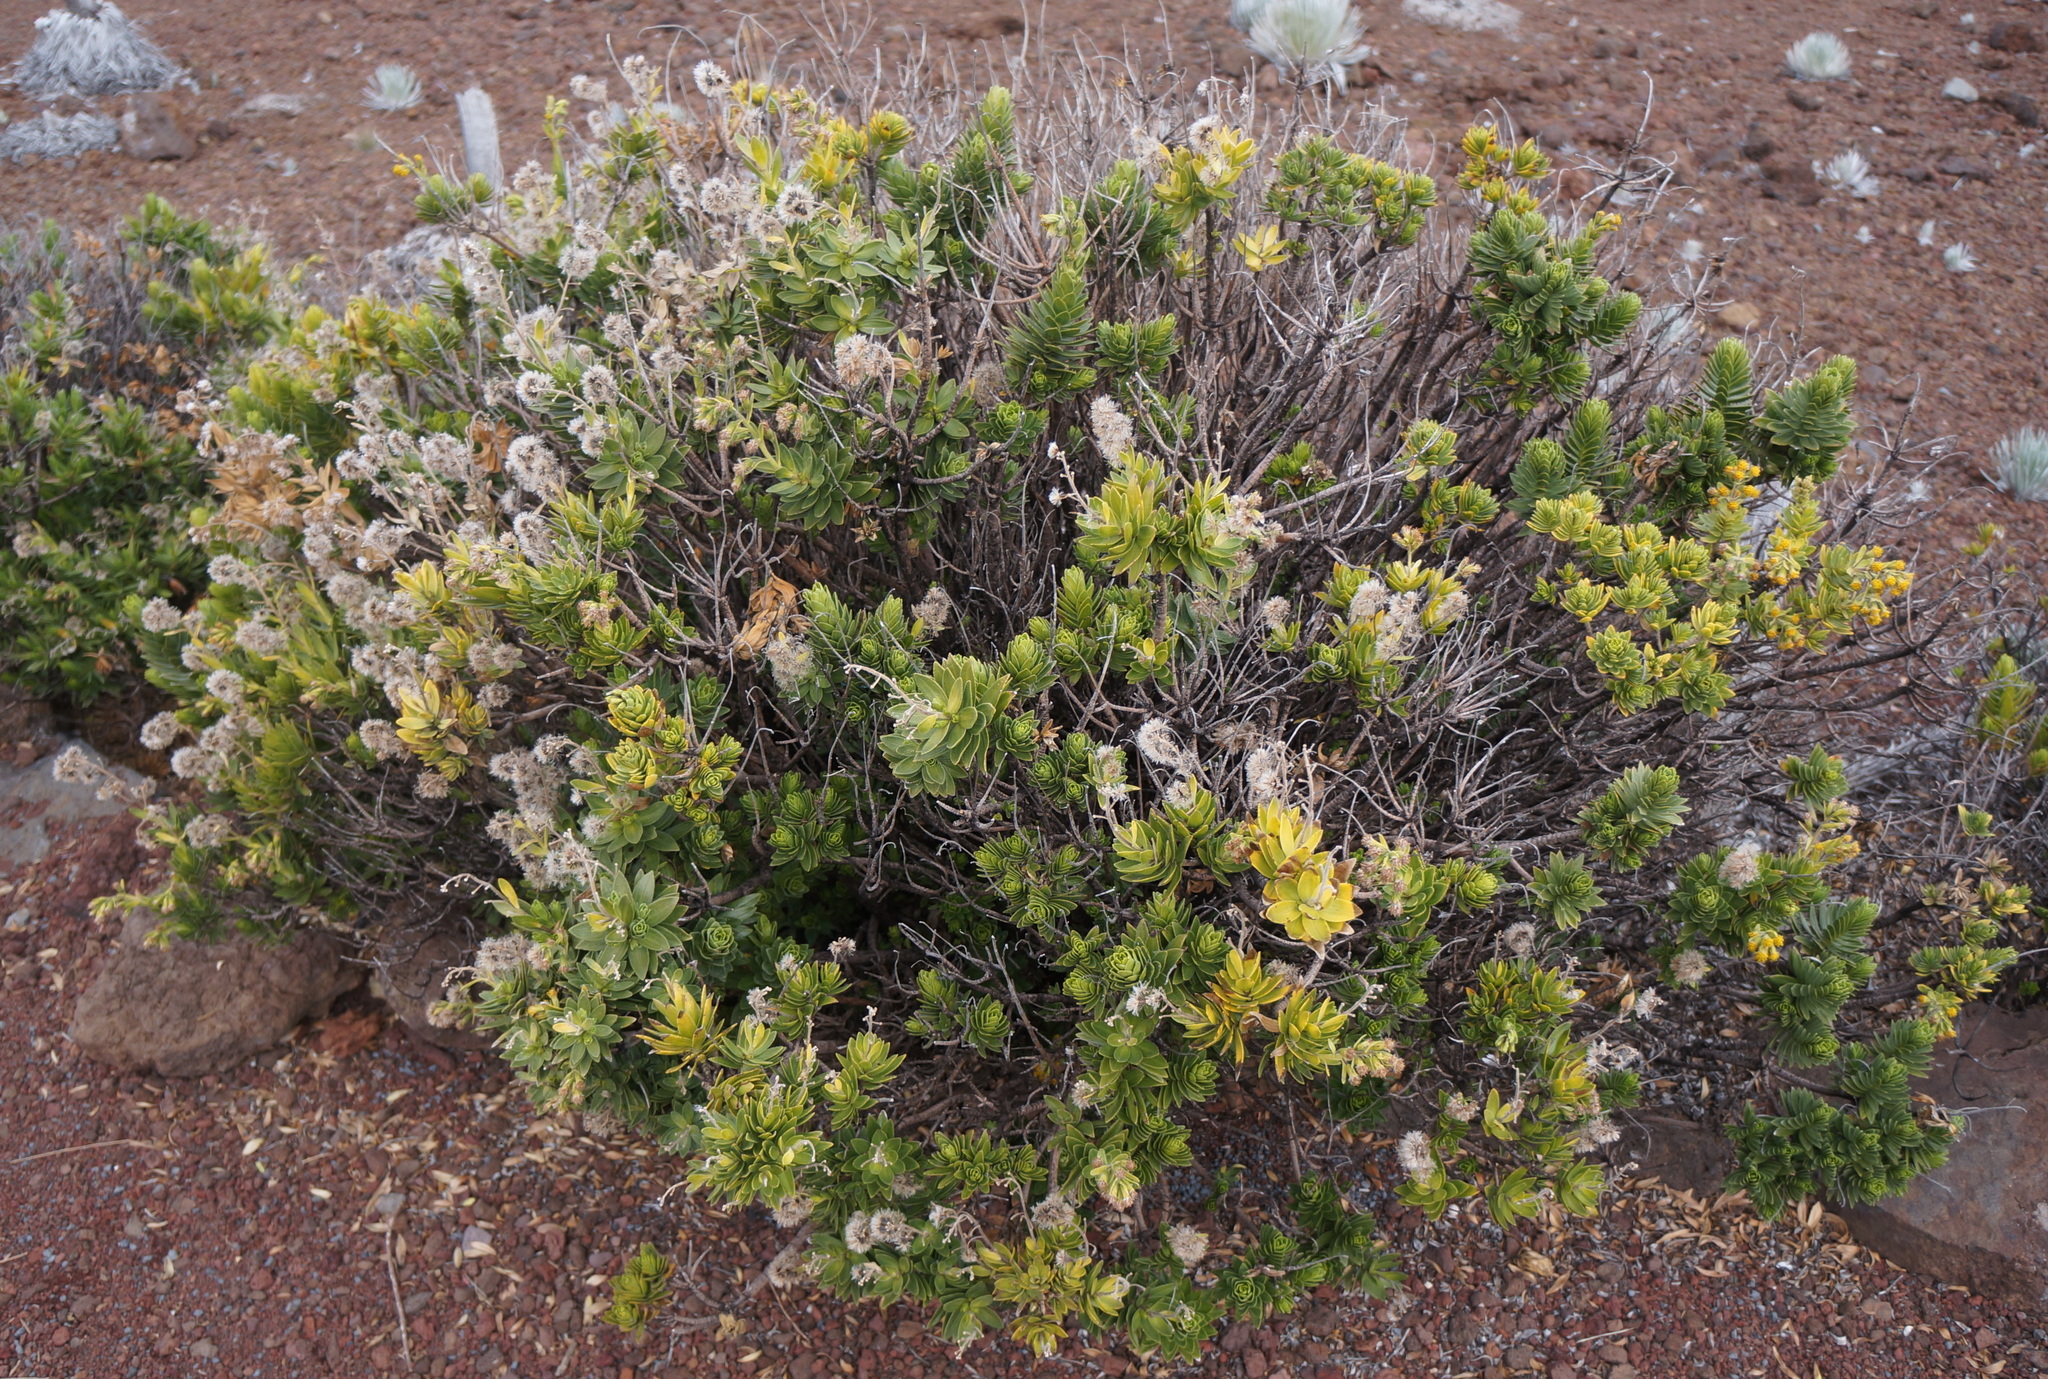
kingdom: Plantae
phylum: Tracheophyta
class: Magnoliopsida
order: Asterales
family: Asteraceae
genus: Dubautia
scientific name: Dubautia menziesii
